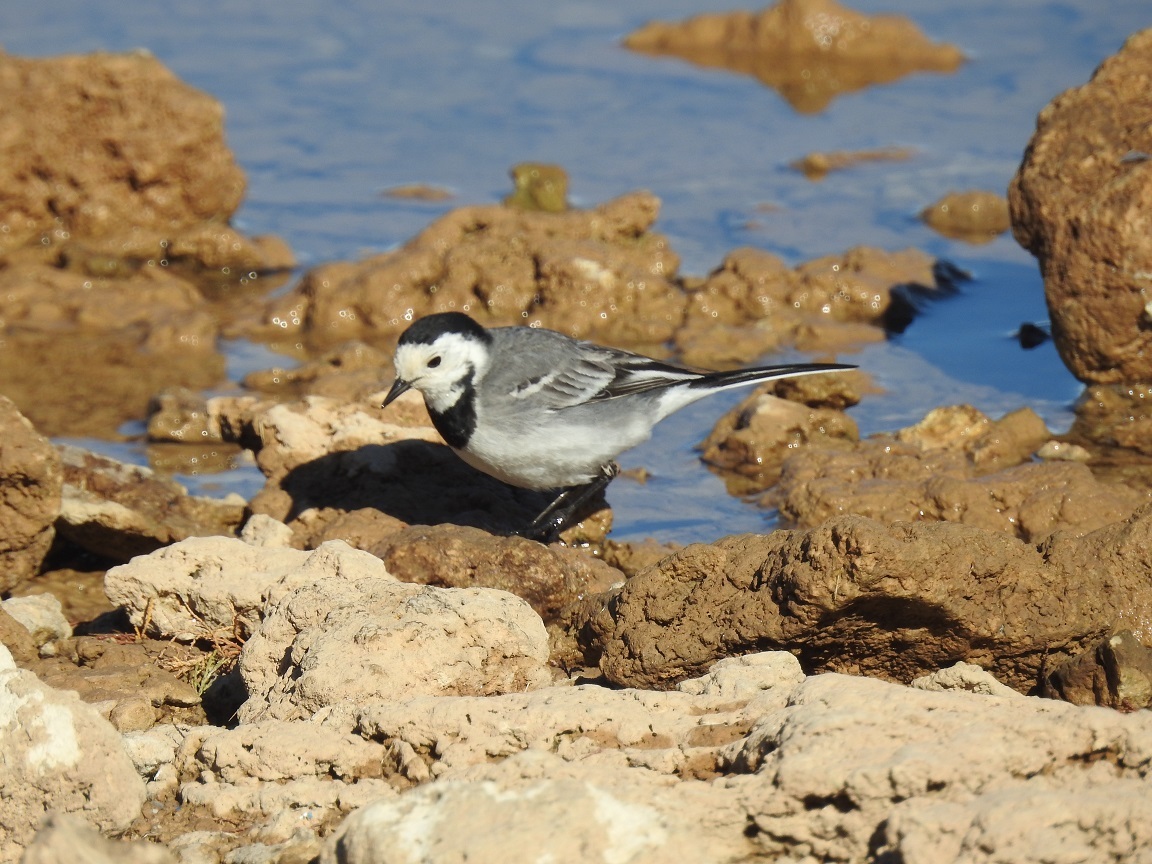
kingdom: Animalia
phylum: Chordata
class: Aves
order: Passeriformes
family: Motacillidae
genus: Motacilla
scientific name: Motacilla alba
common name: White wagtail
